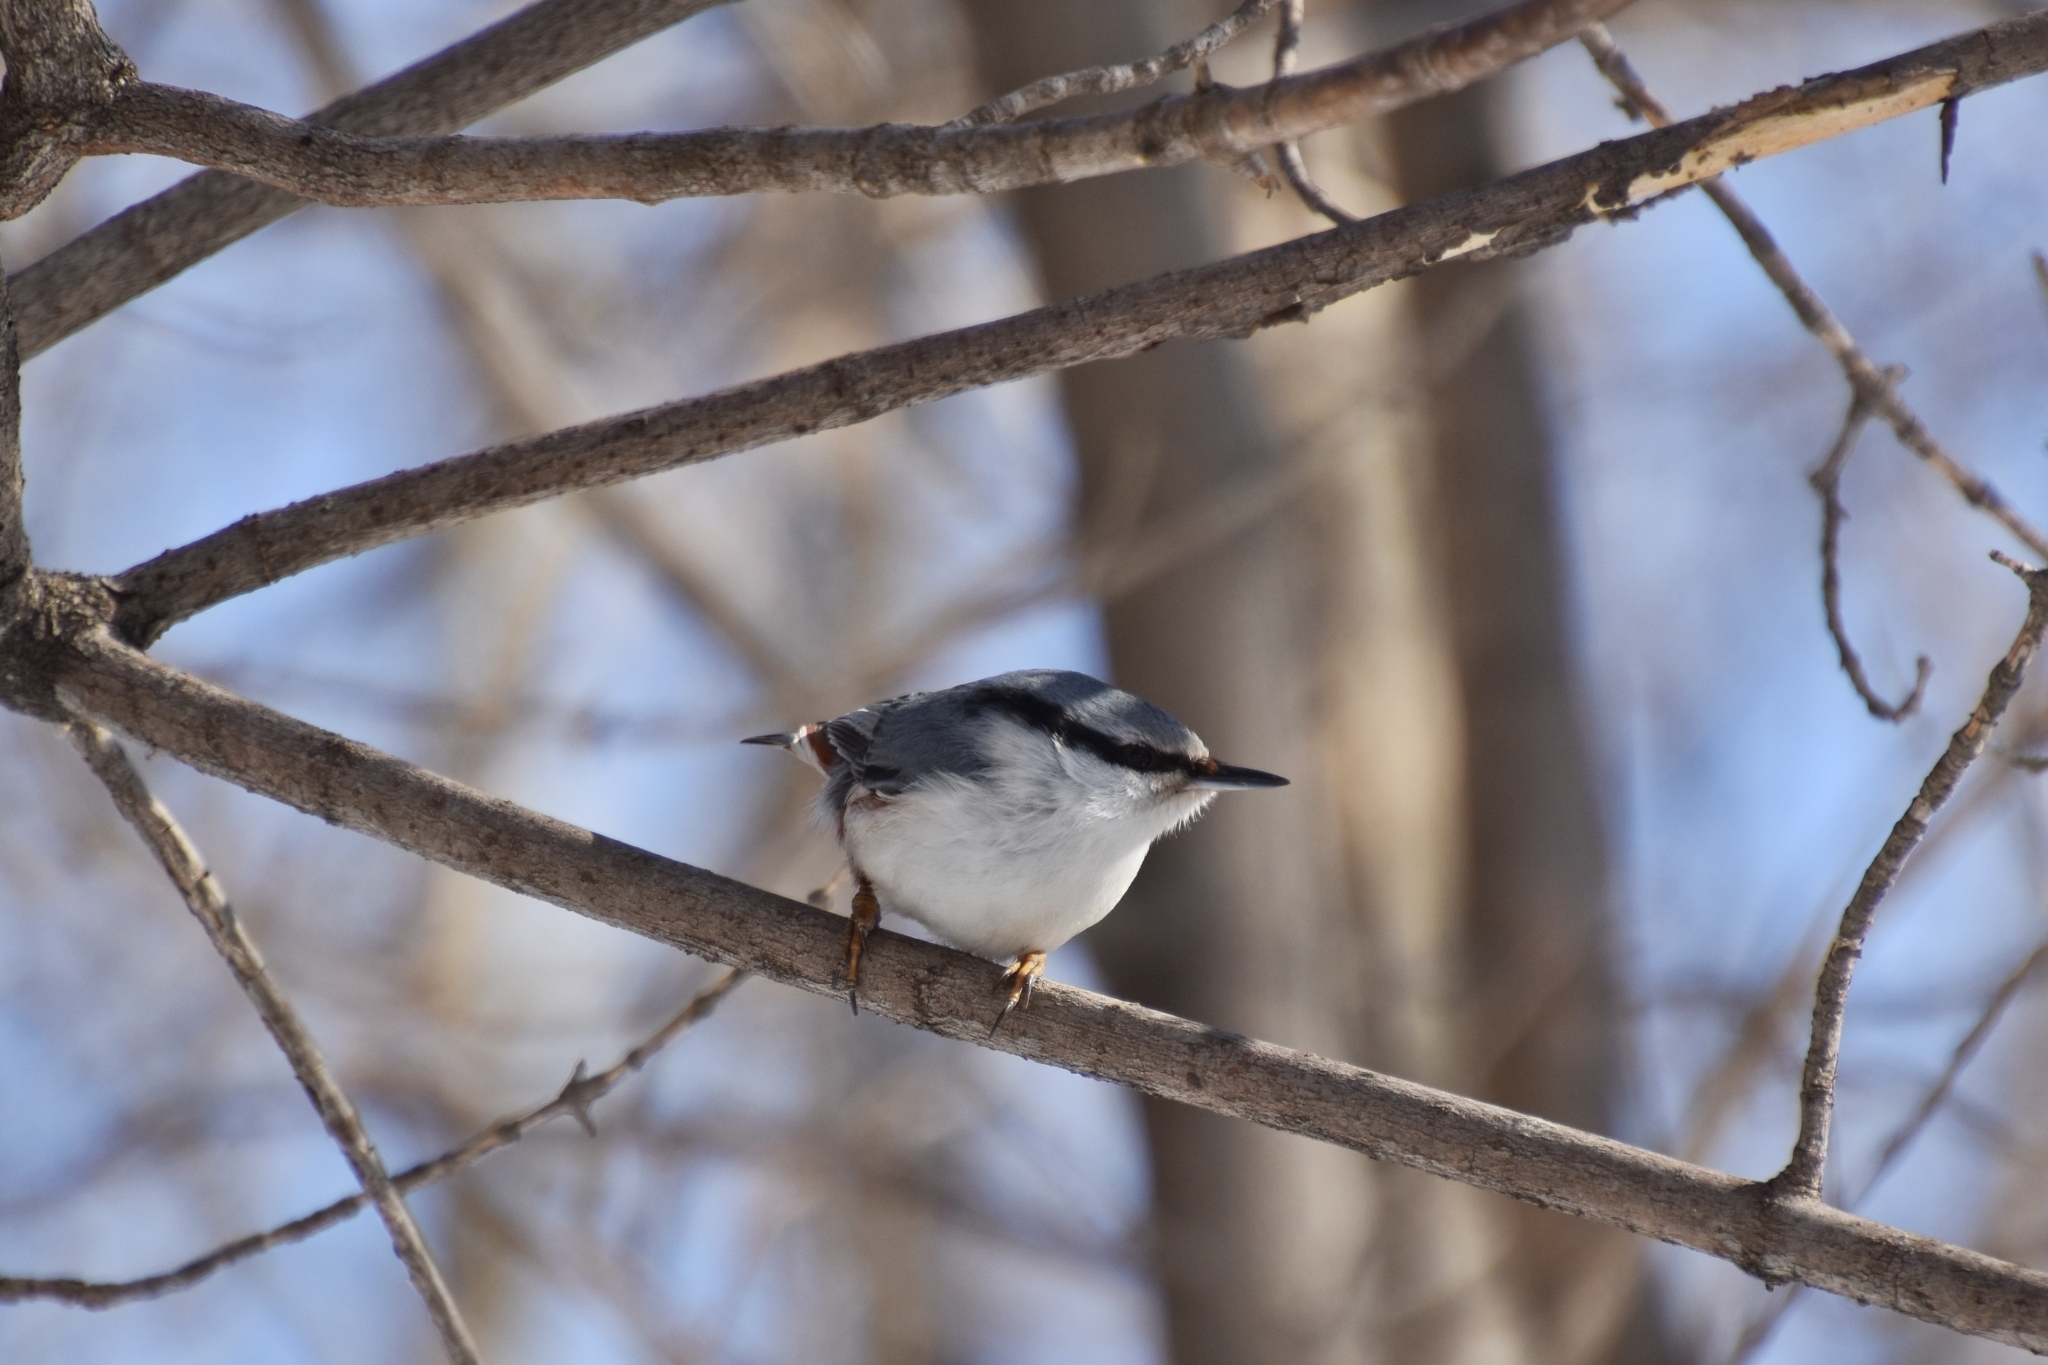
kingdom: Animalia
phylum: Chordata
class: Aves
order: Passeriformes
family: Sittidae
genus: Sitta
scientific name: Sitta europaea
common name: Eurasian nuthatch
